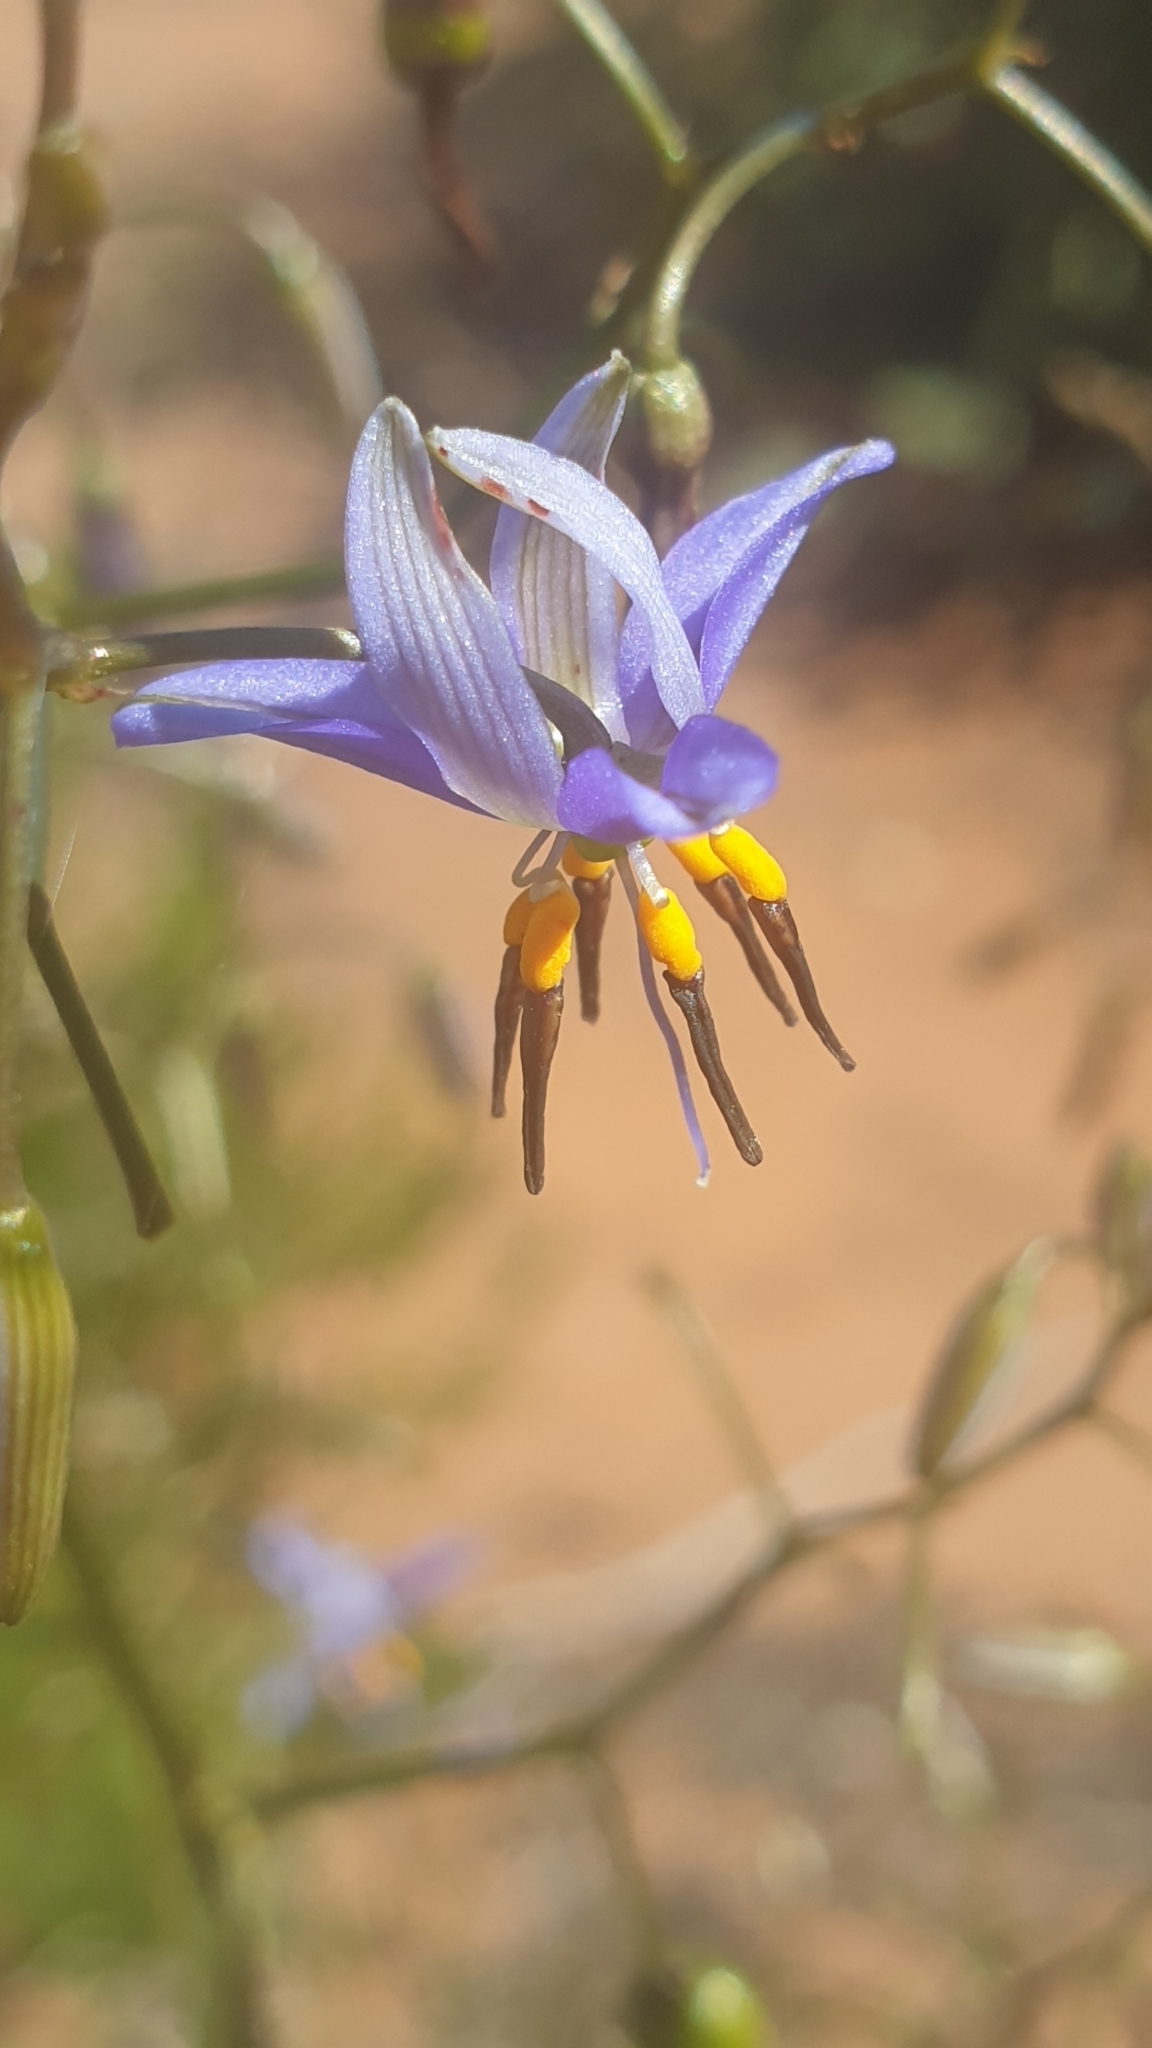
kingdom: Plantae
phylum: Tracheophyta
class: Liliopsida
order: Asparagales
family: Asphodelaceae
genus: Dianella
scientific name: Dianella revoluta
